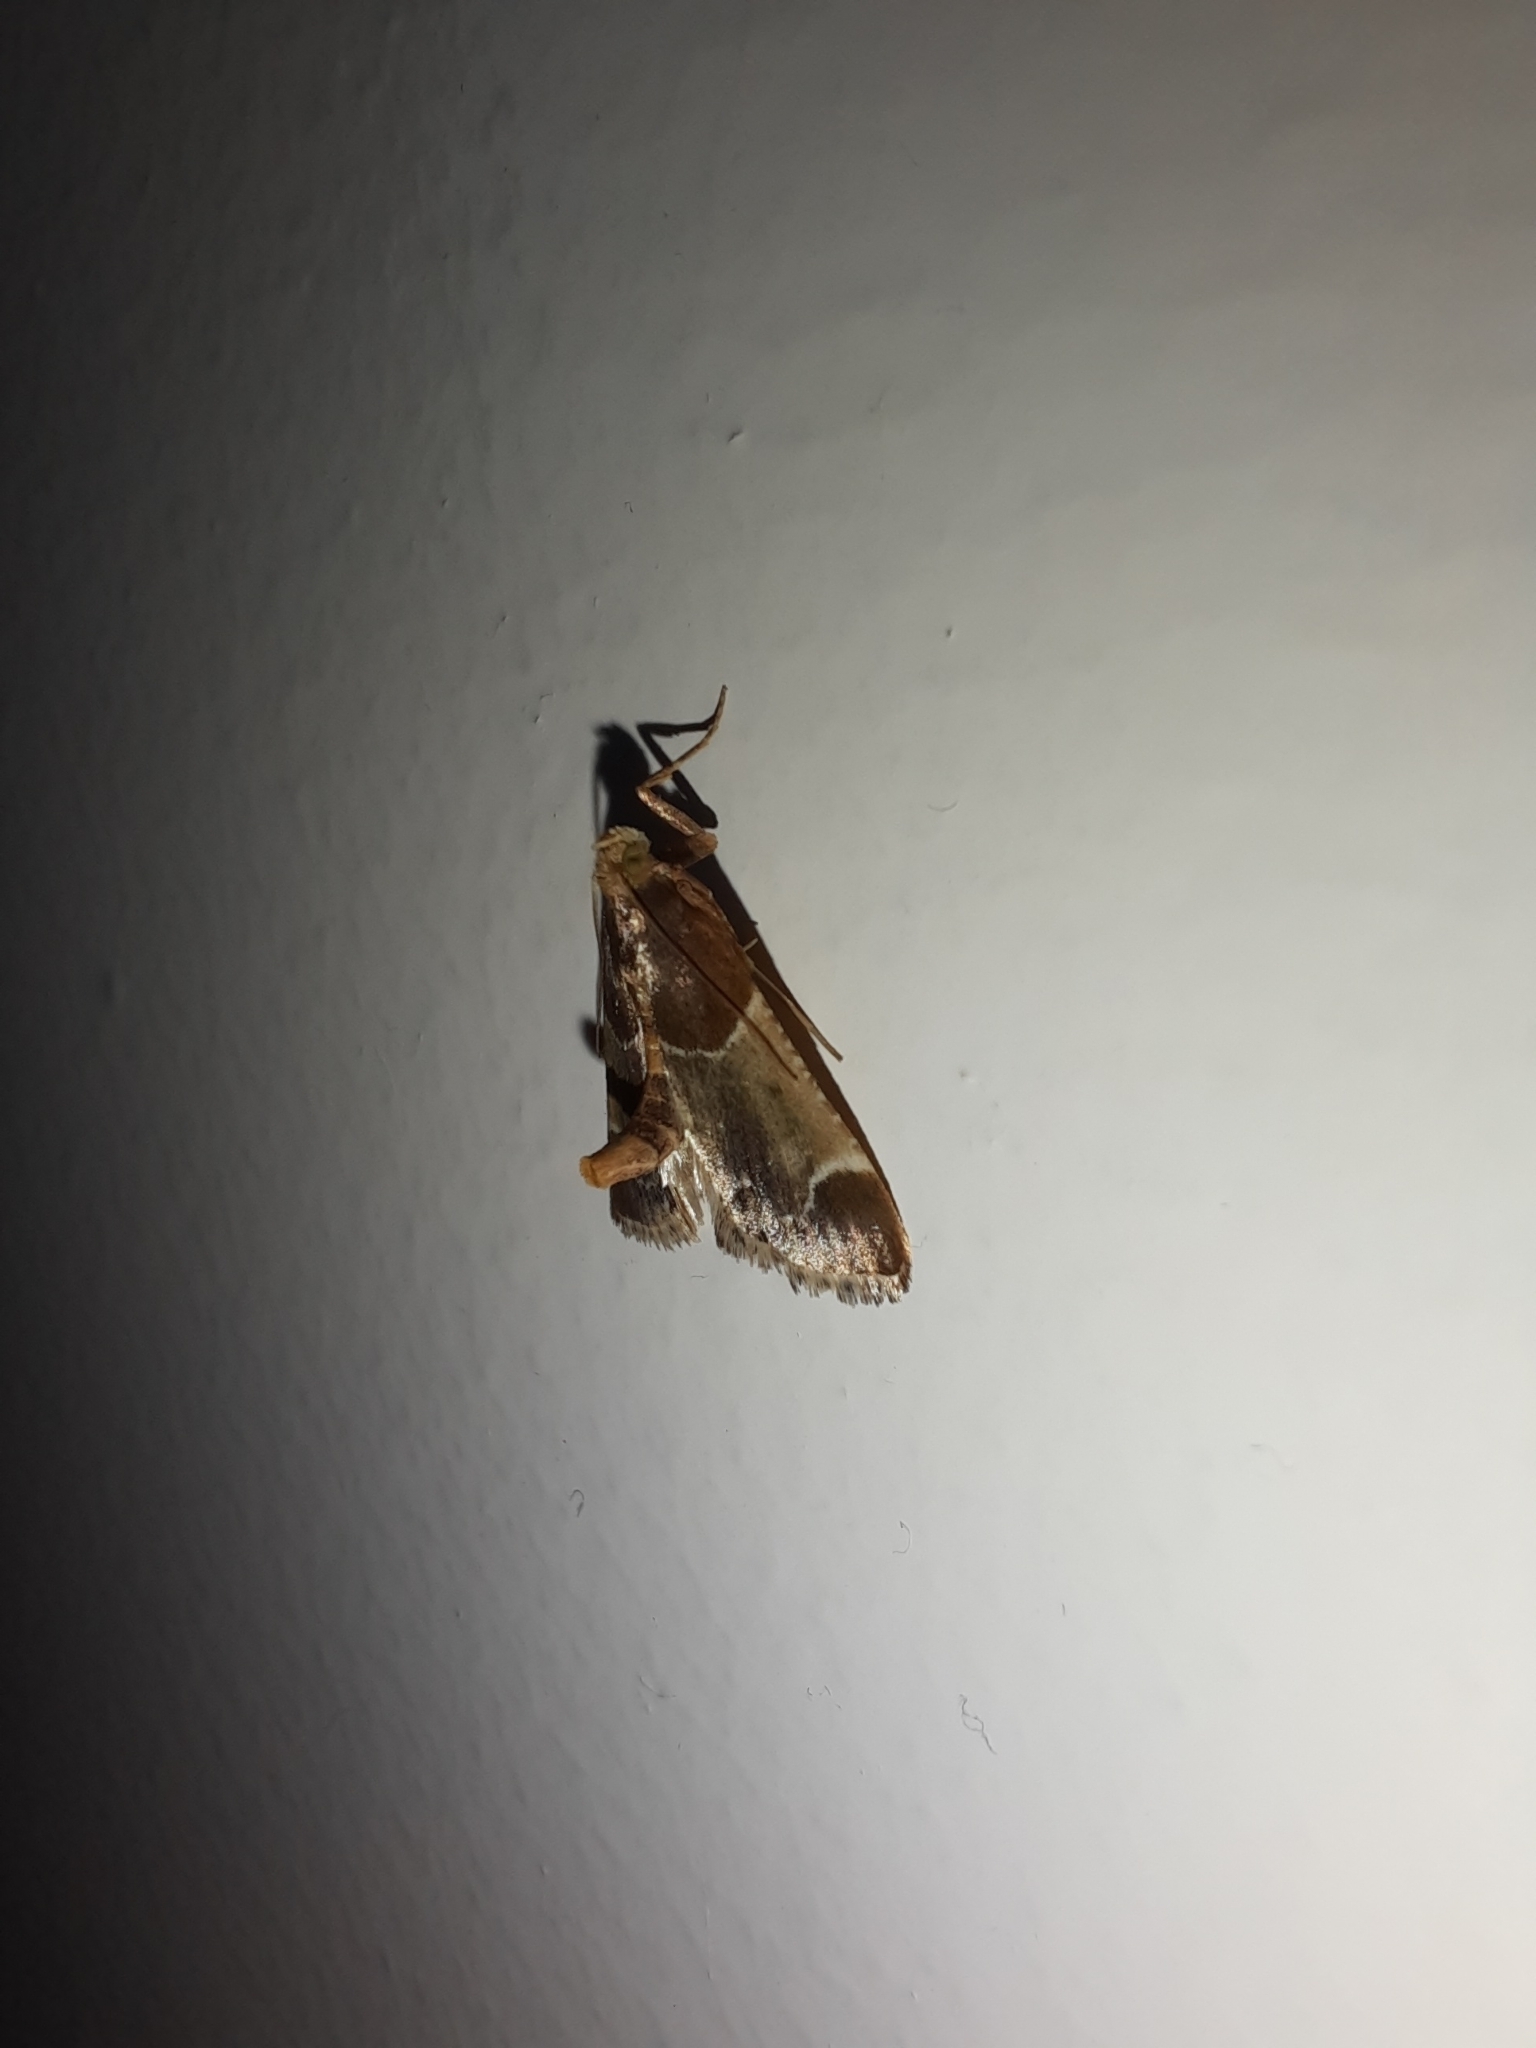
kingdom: Animalia
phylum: Arthropoda
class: Insecta
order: Lepidoptera
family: Pyralidae
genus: Pyralis
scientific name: Pyralis farinalis
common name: Meal moth
